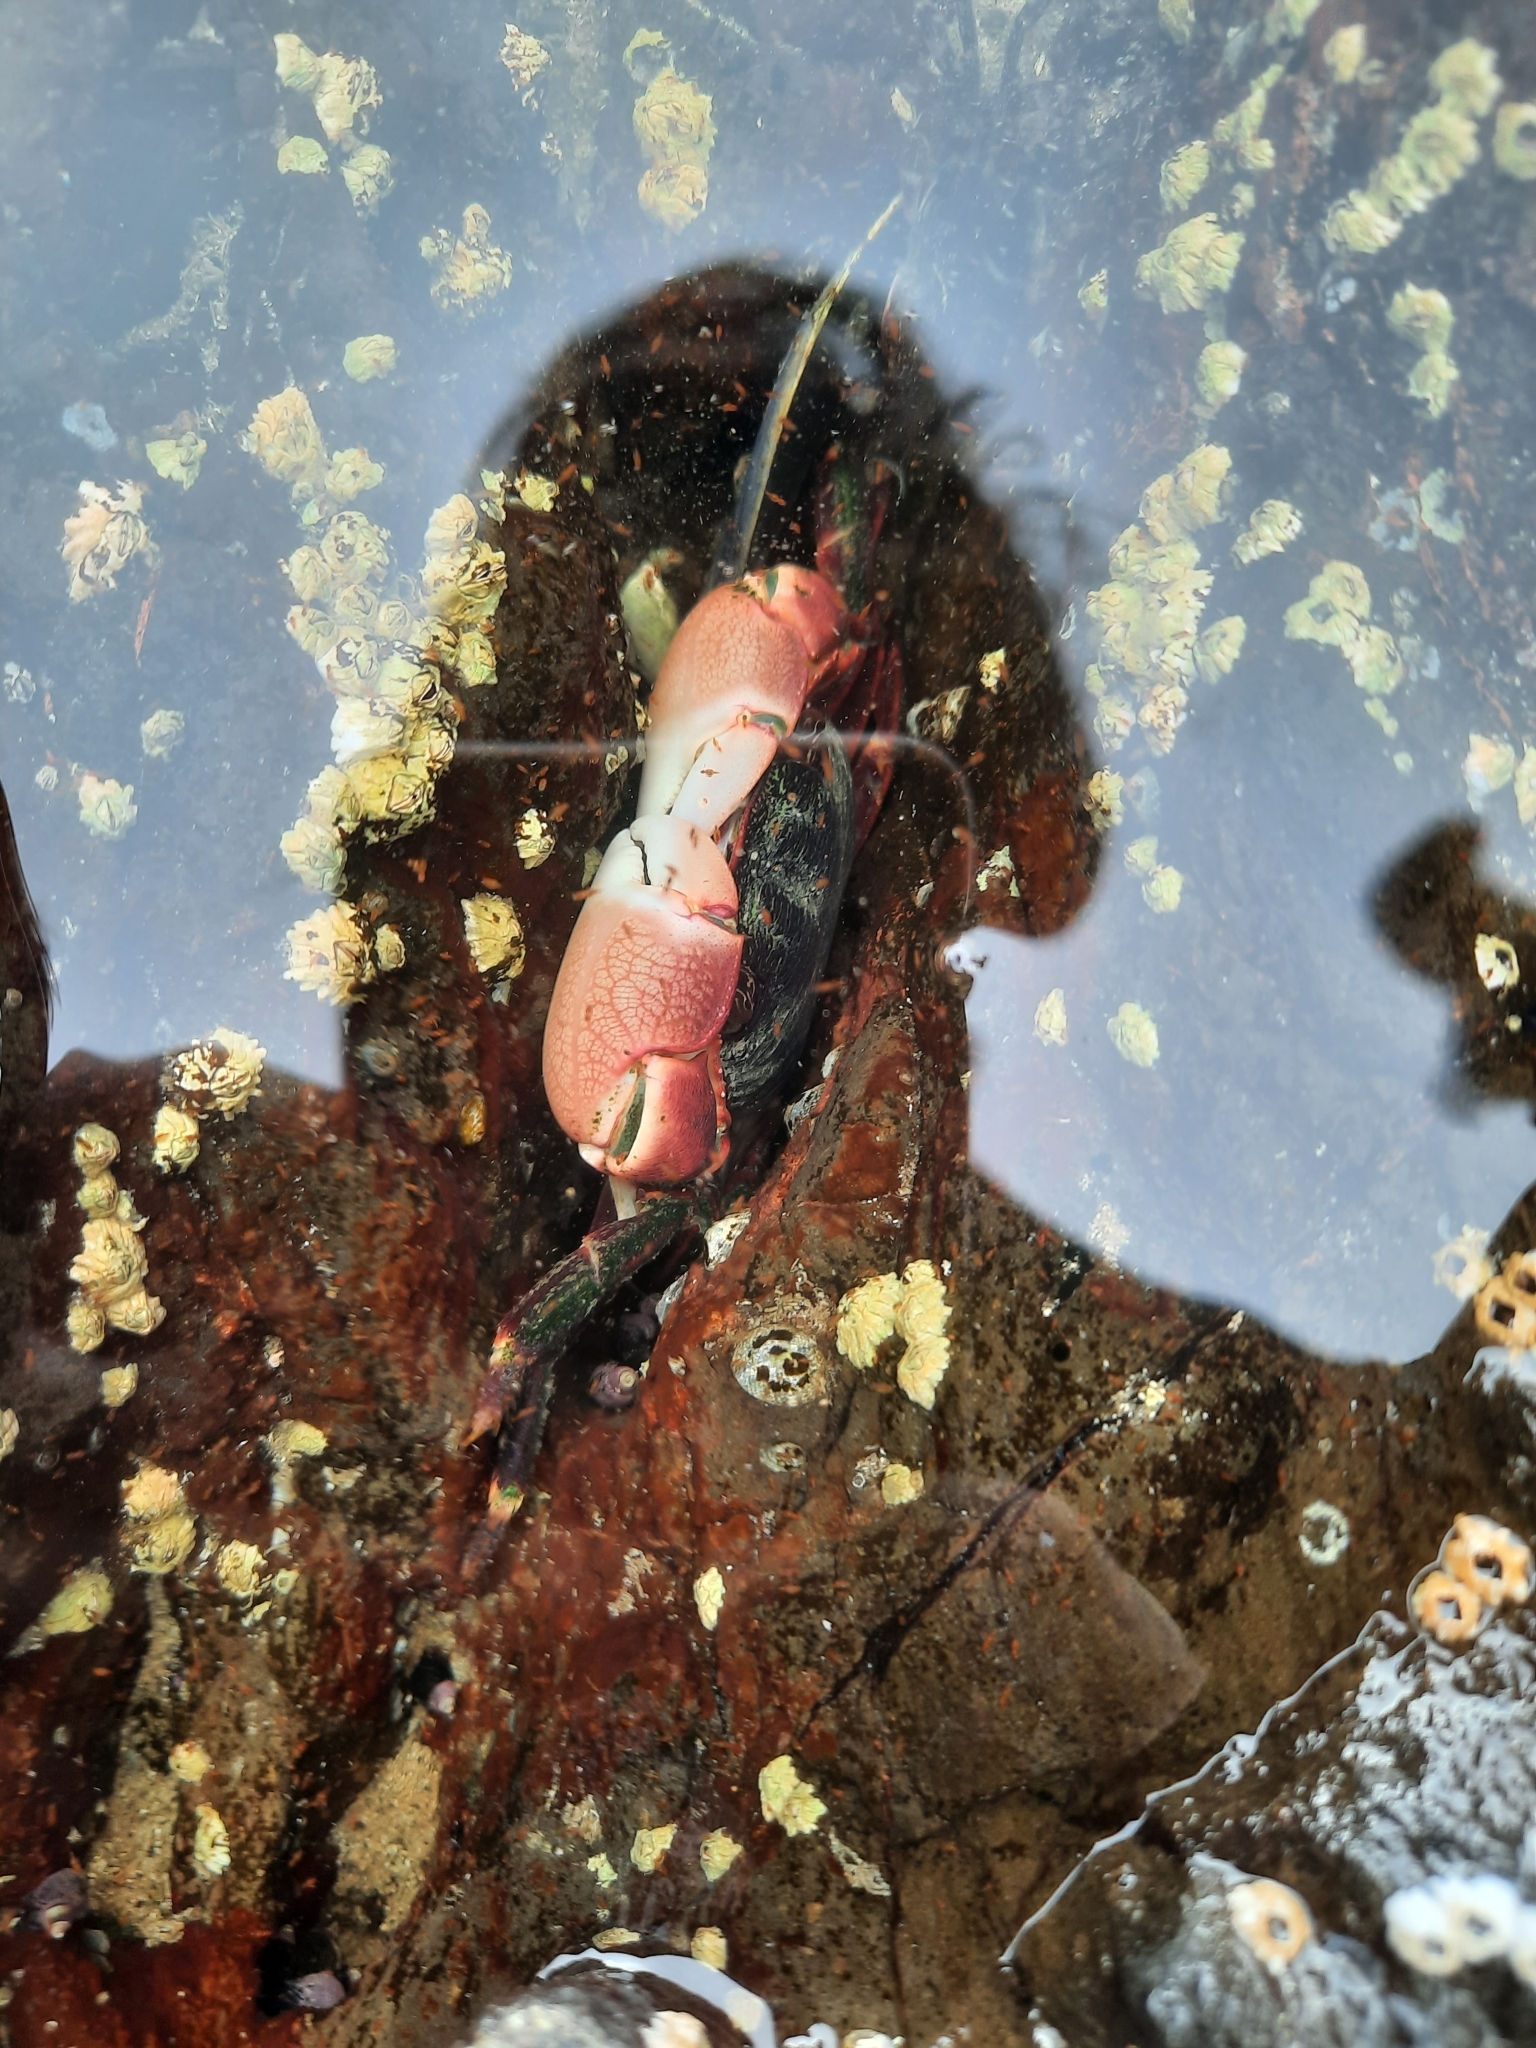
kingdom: Animalia
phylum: Arthropoda
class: Malacostraca
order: Decapoda
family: Grapsidae
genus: Pachygrapsus
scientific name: Pachygrapsus crassipes
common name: Striped shore crab
